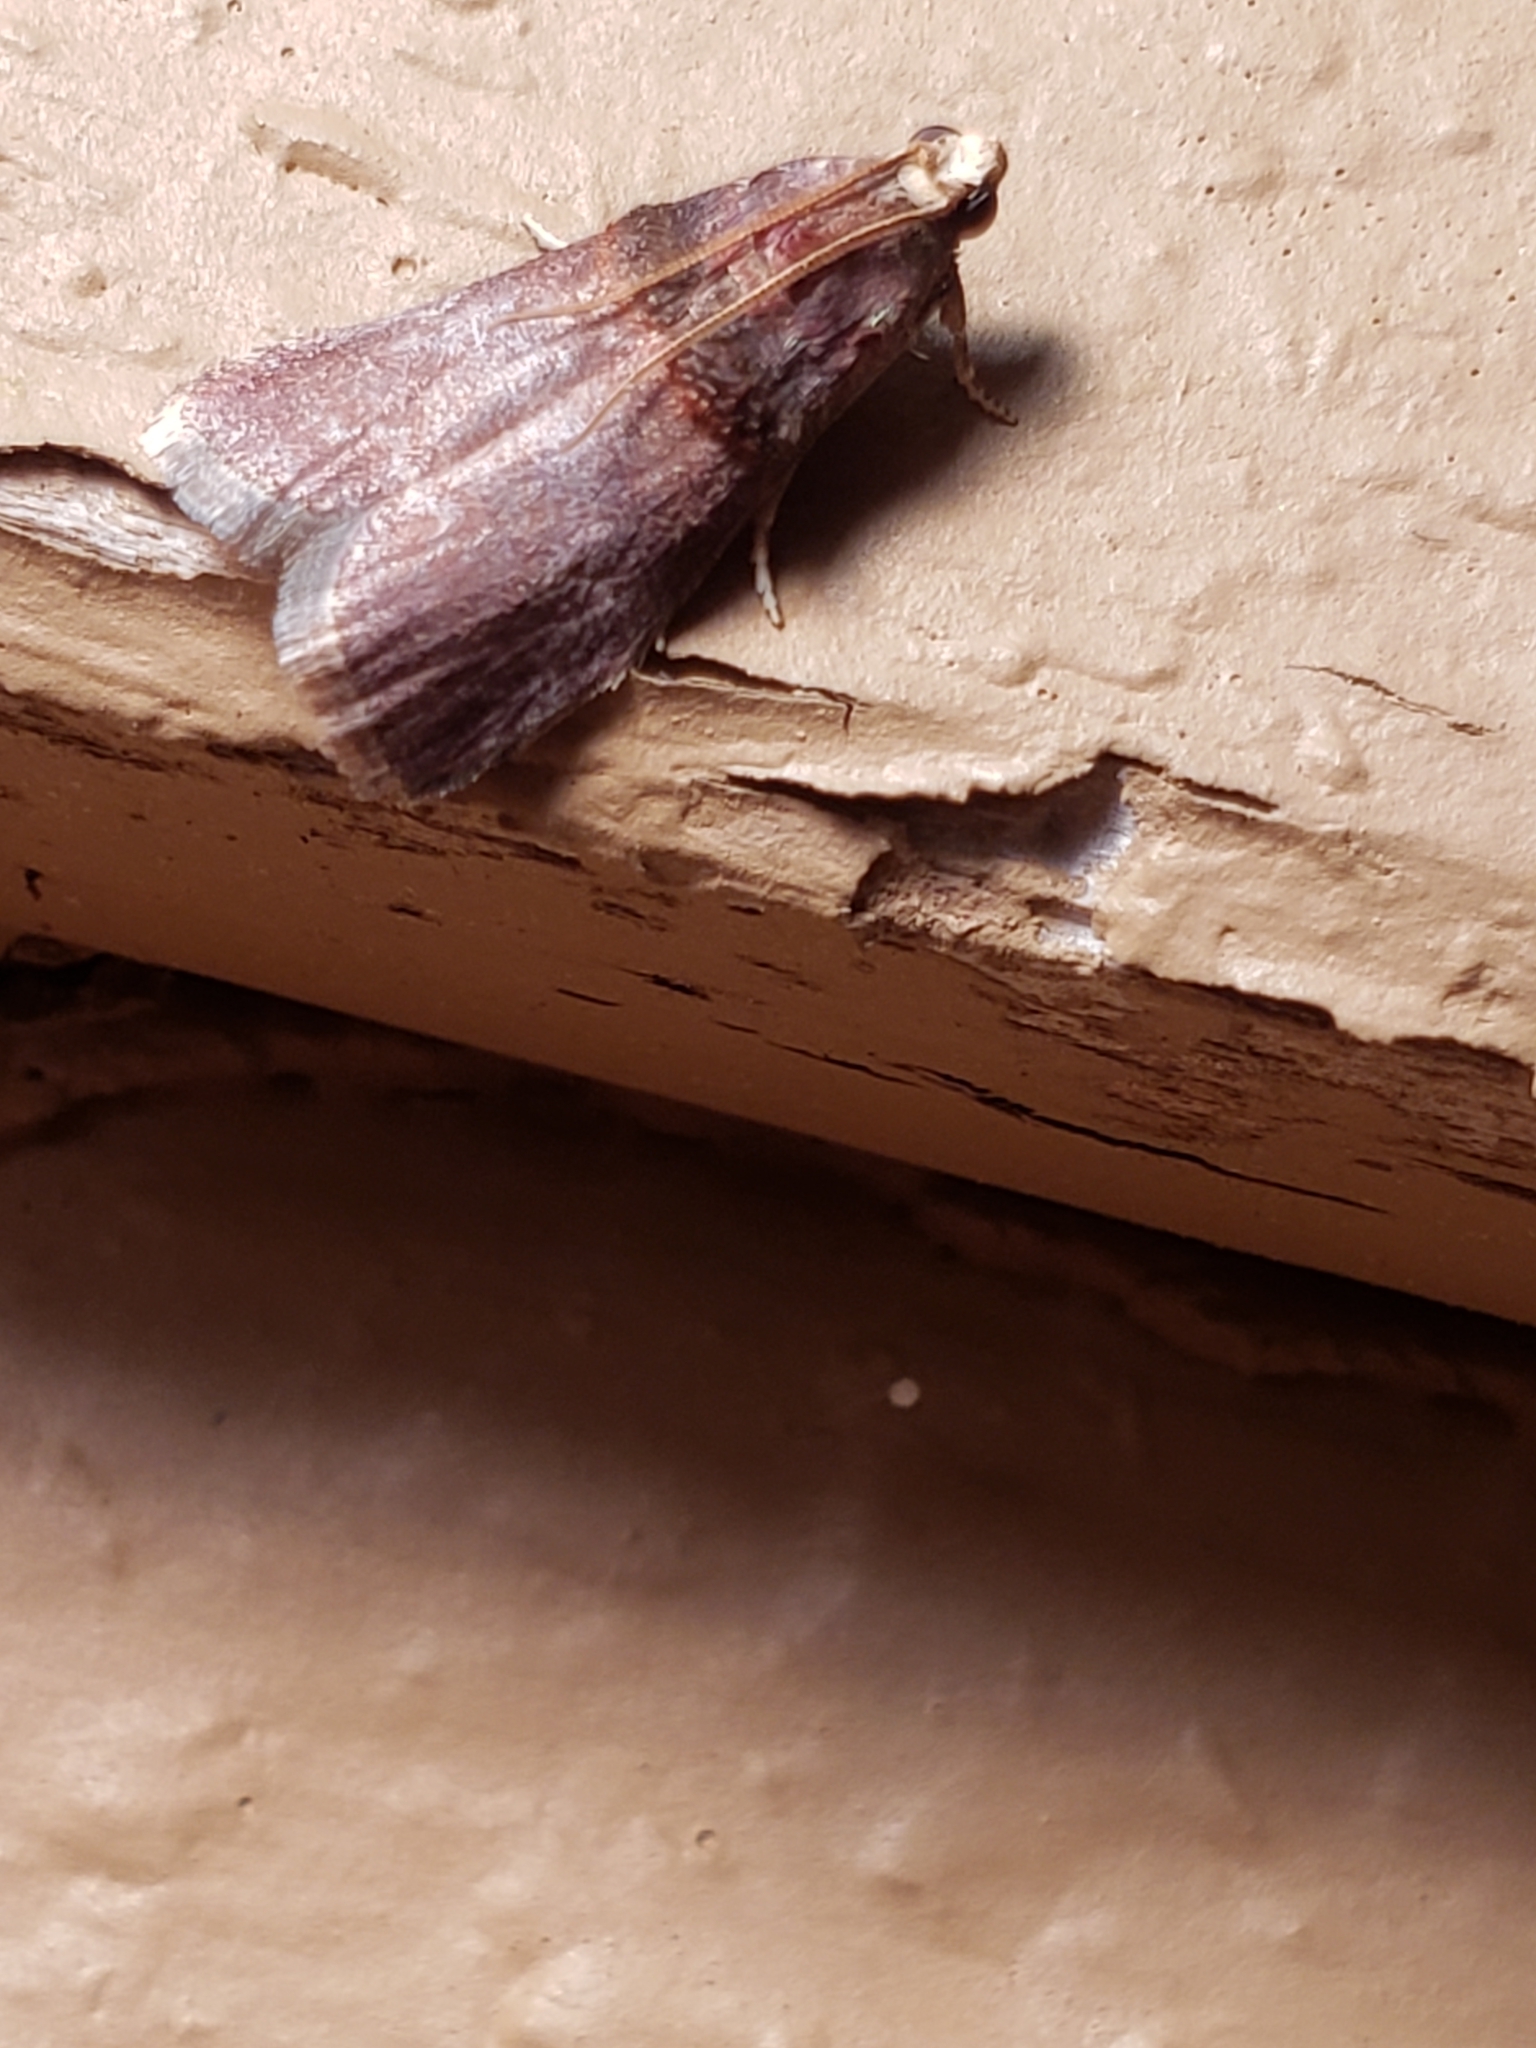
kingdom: Animalia
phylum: Arthropoda
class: Insecta
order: Lepidoptera
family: Pyralidae
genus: Acrobasis
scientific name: Acrobasis stigmella
